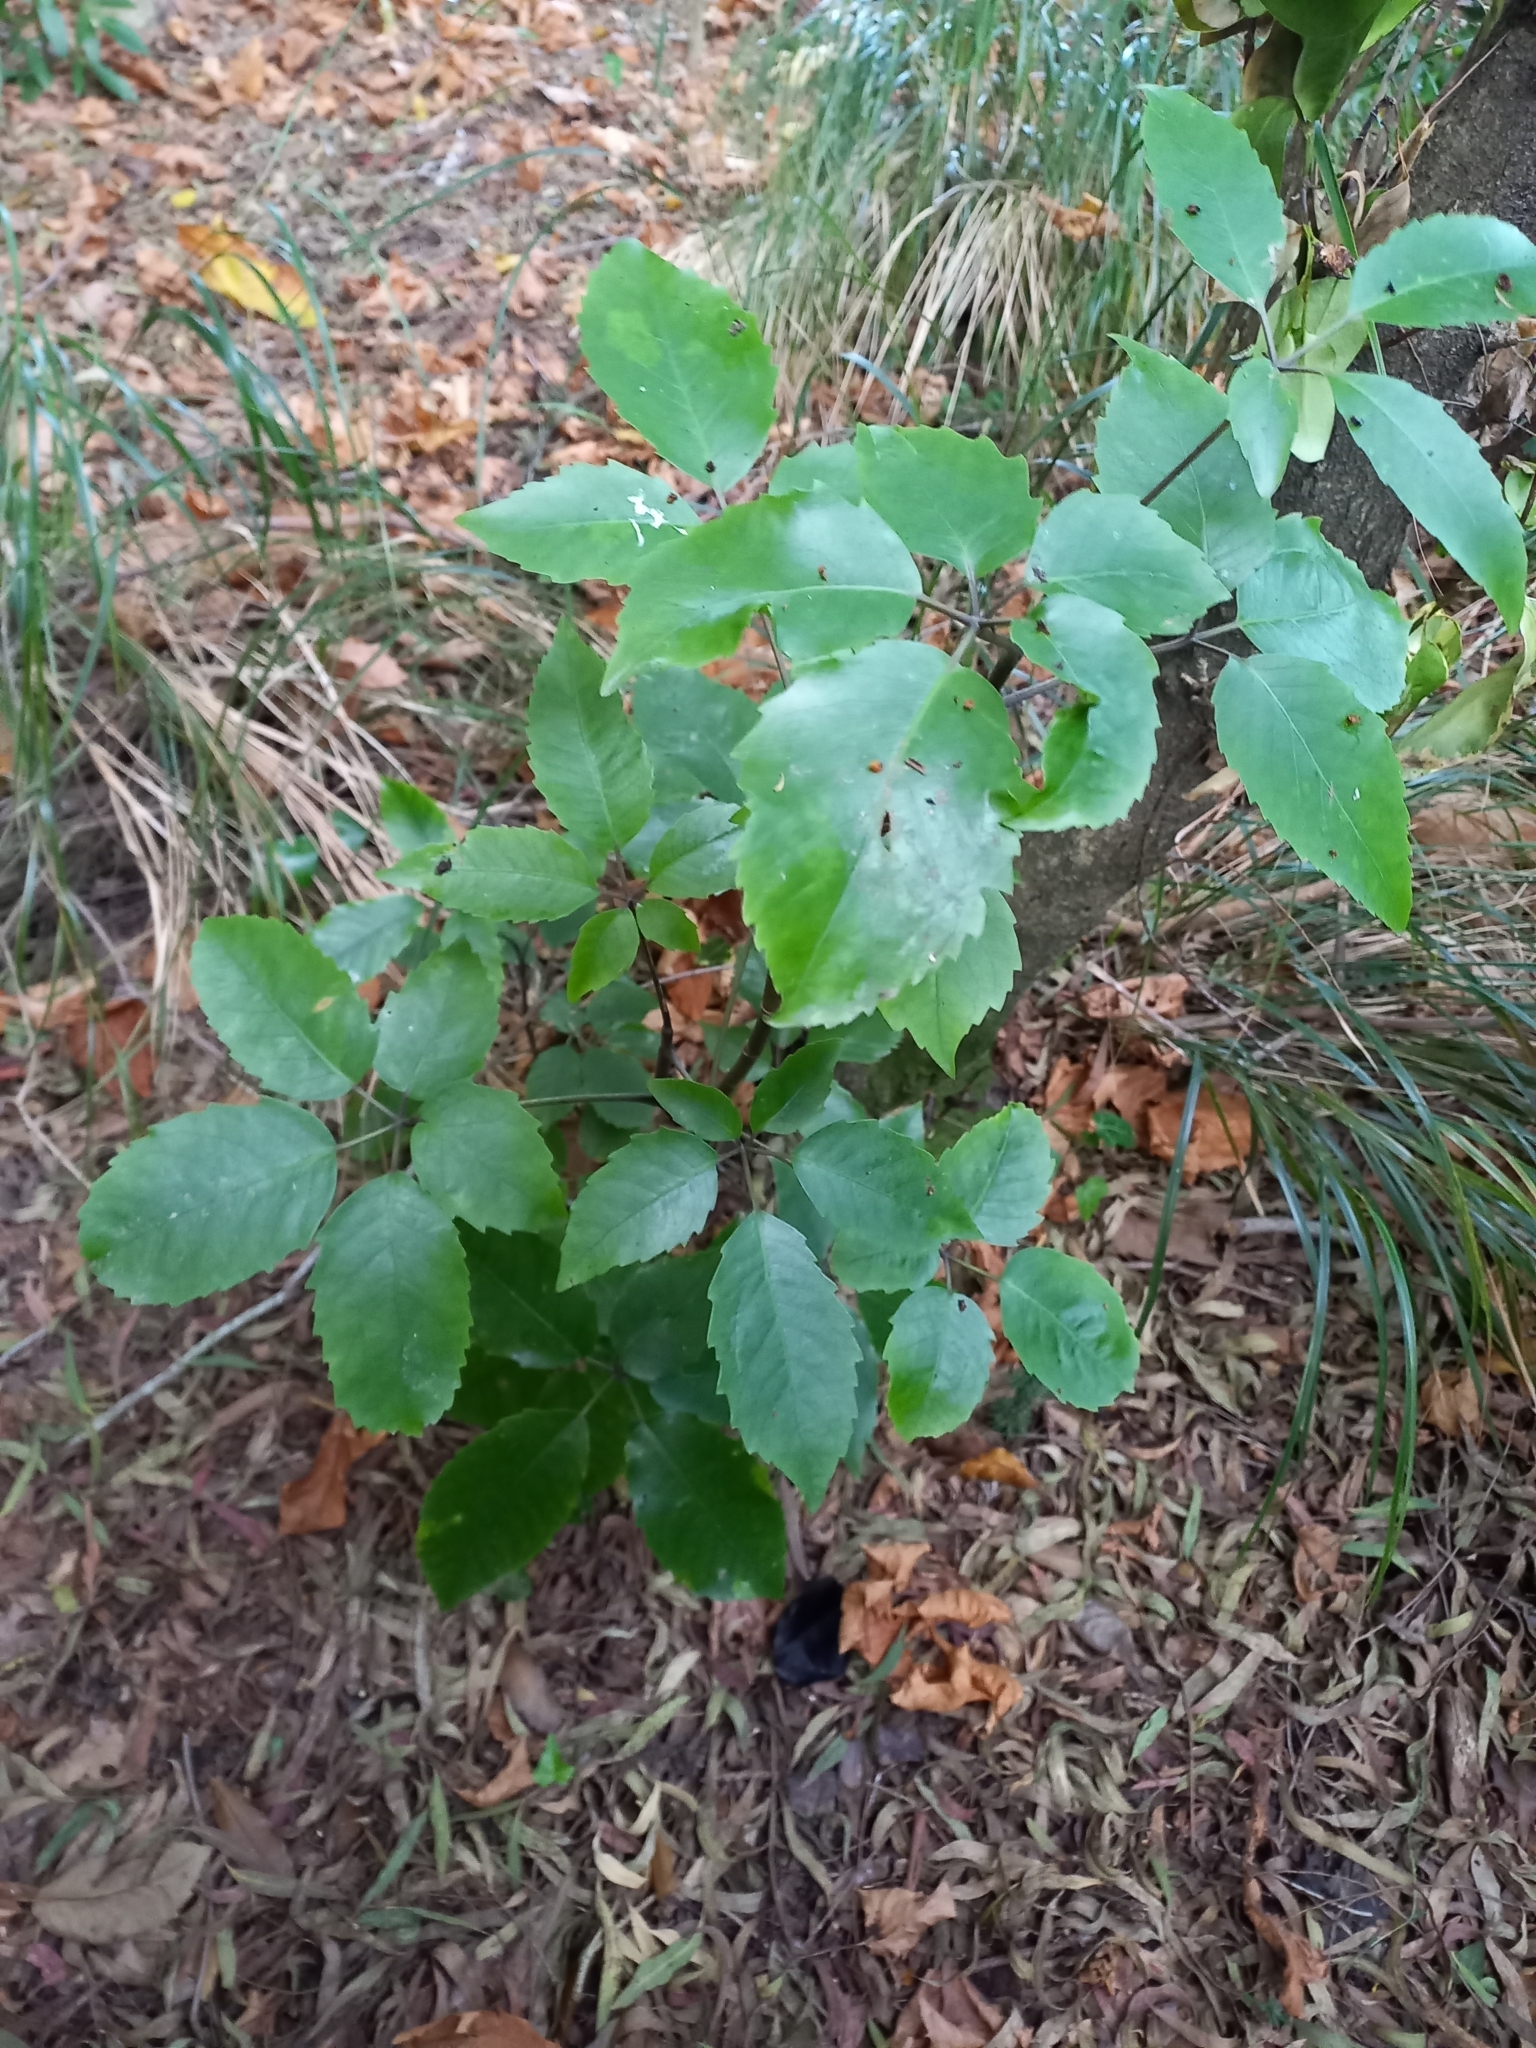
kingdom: Plantae
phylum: Tracheophyta
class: Magnoliopsida
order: Apiales
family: Araliaceae
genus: Neopanax
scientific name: Neopanax arboreus
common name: Five-fingers
